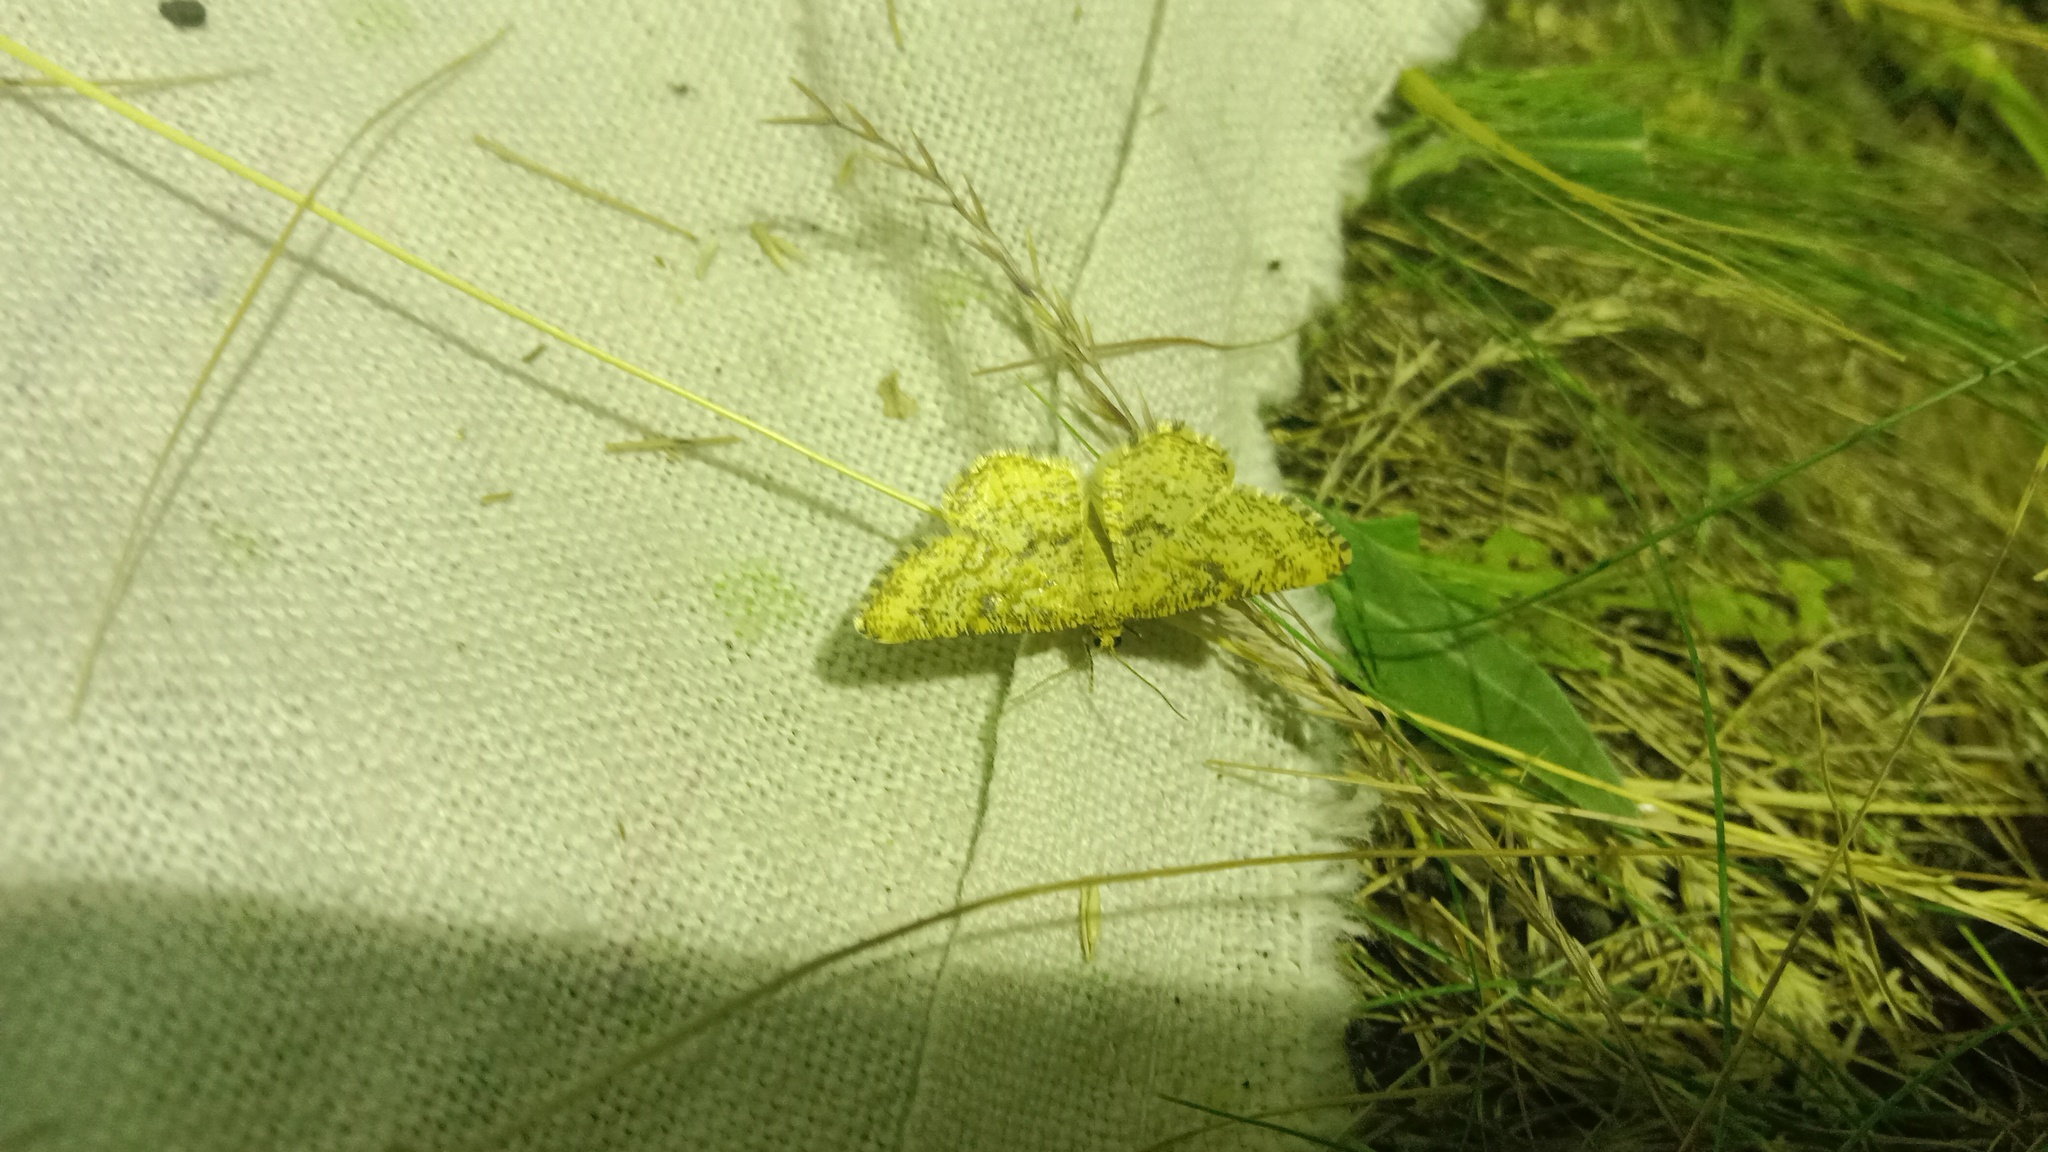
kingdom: Animalia
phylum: Arthropoda
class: Insecta
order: Lepidoptera
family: Geometridae
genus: Heliomata
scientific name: Heliomata glarearia
